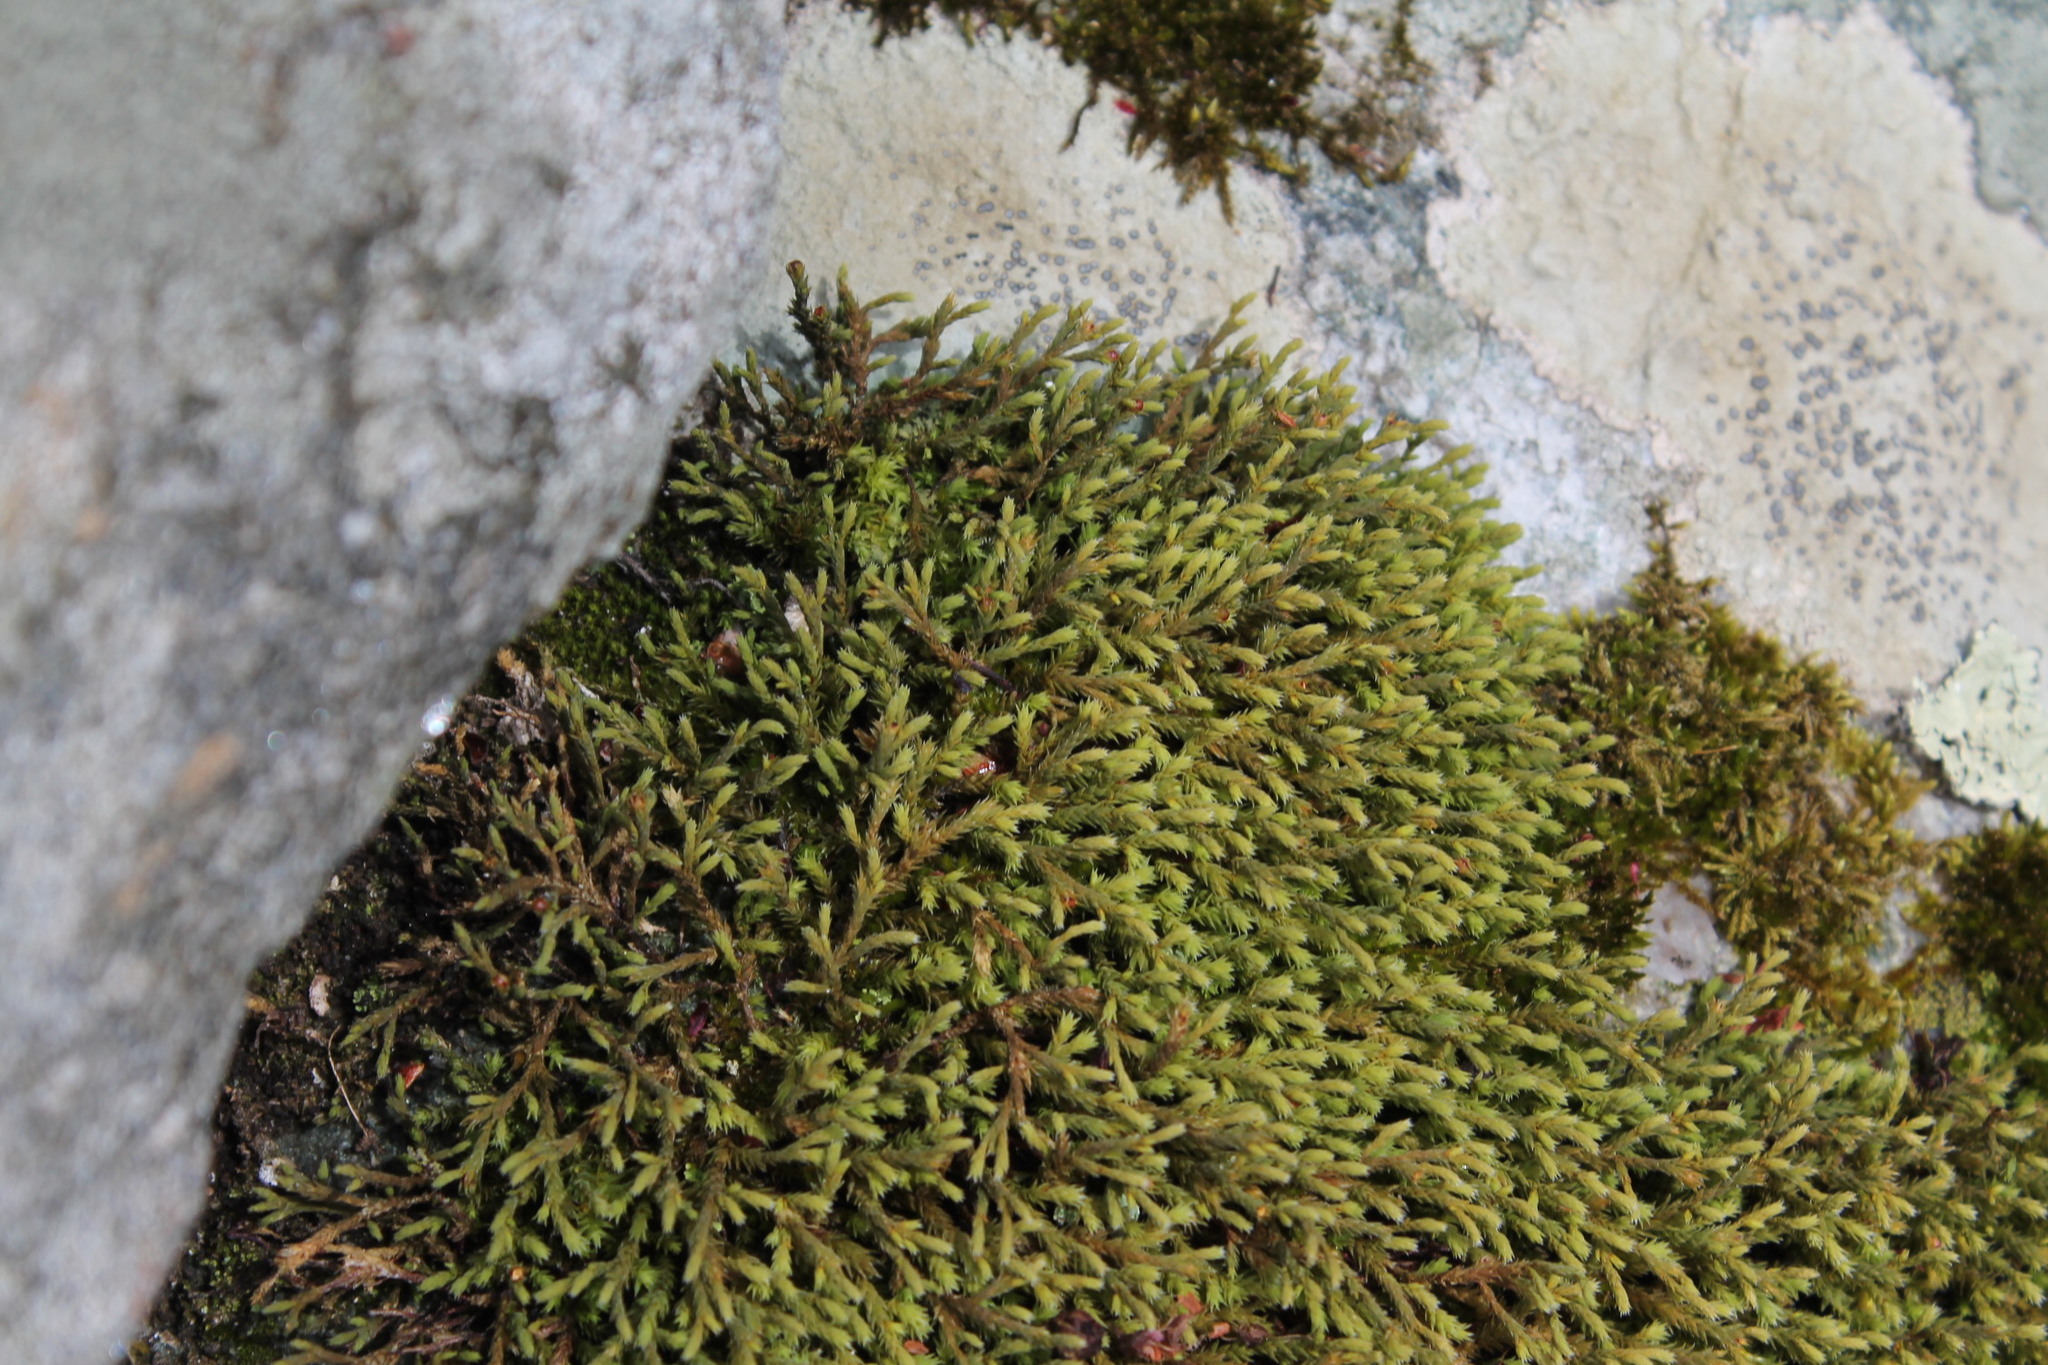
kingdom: Plantae
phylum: Bryophyta
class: Bryopsida
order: Hedwigiales
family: Hedwigiaceae
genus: Hedwigia
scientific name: Hedwigia ciliata
